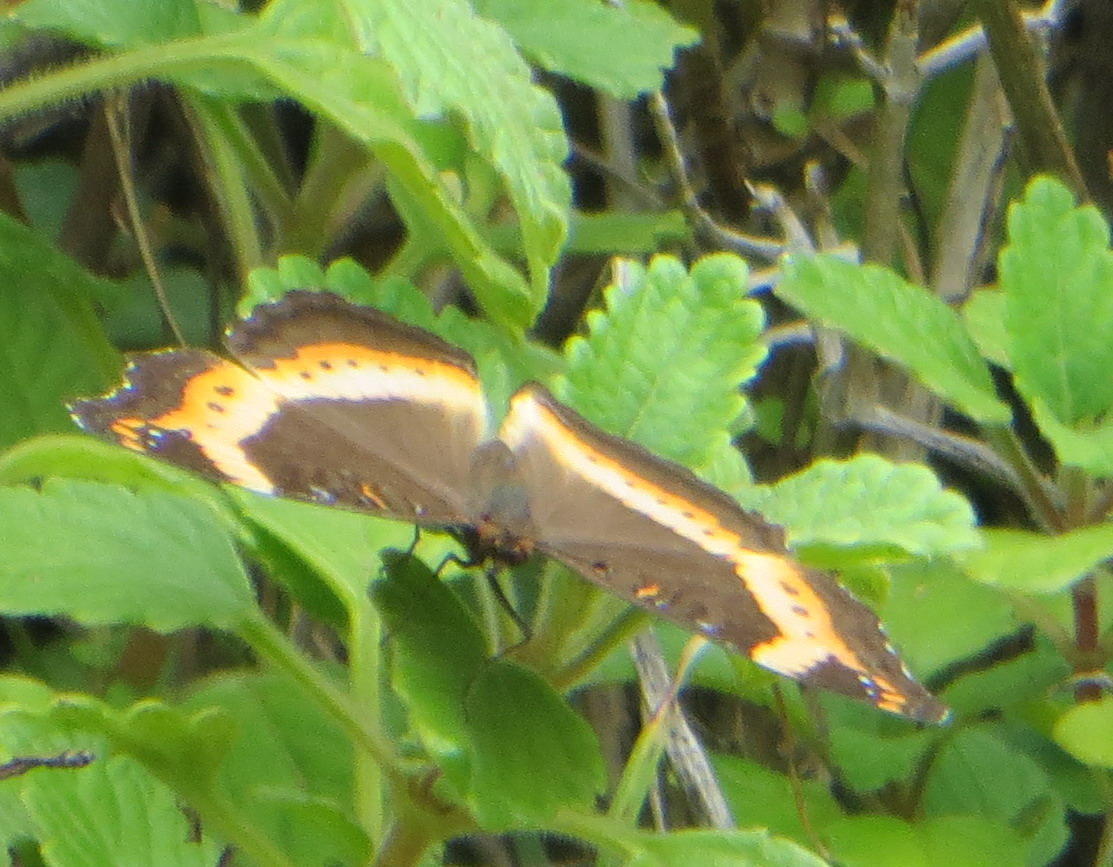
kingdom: Animalia
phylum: Arthropoda
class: Insecta
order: Lepidoptera
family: Nymphalidae
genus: Junonia
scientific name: Junonia archesia
